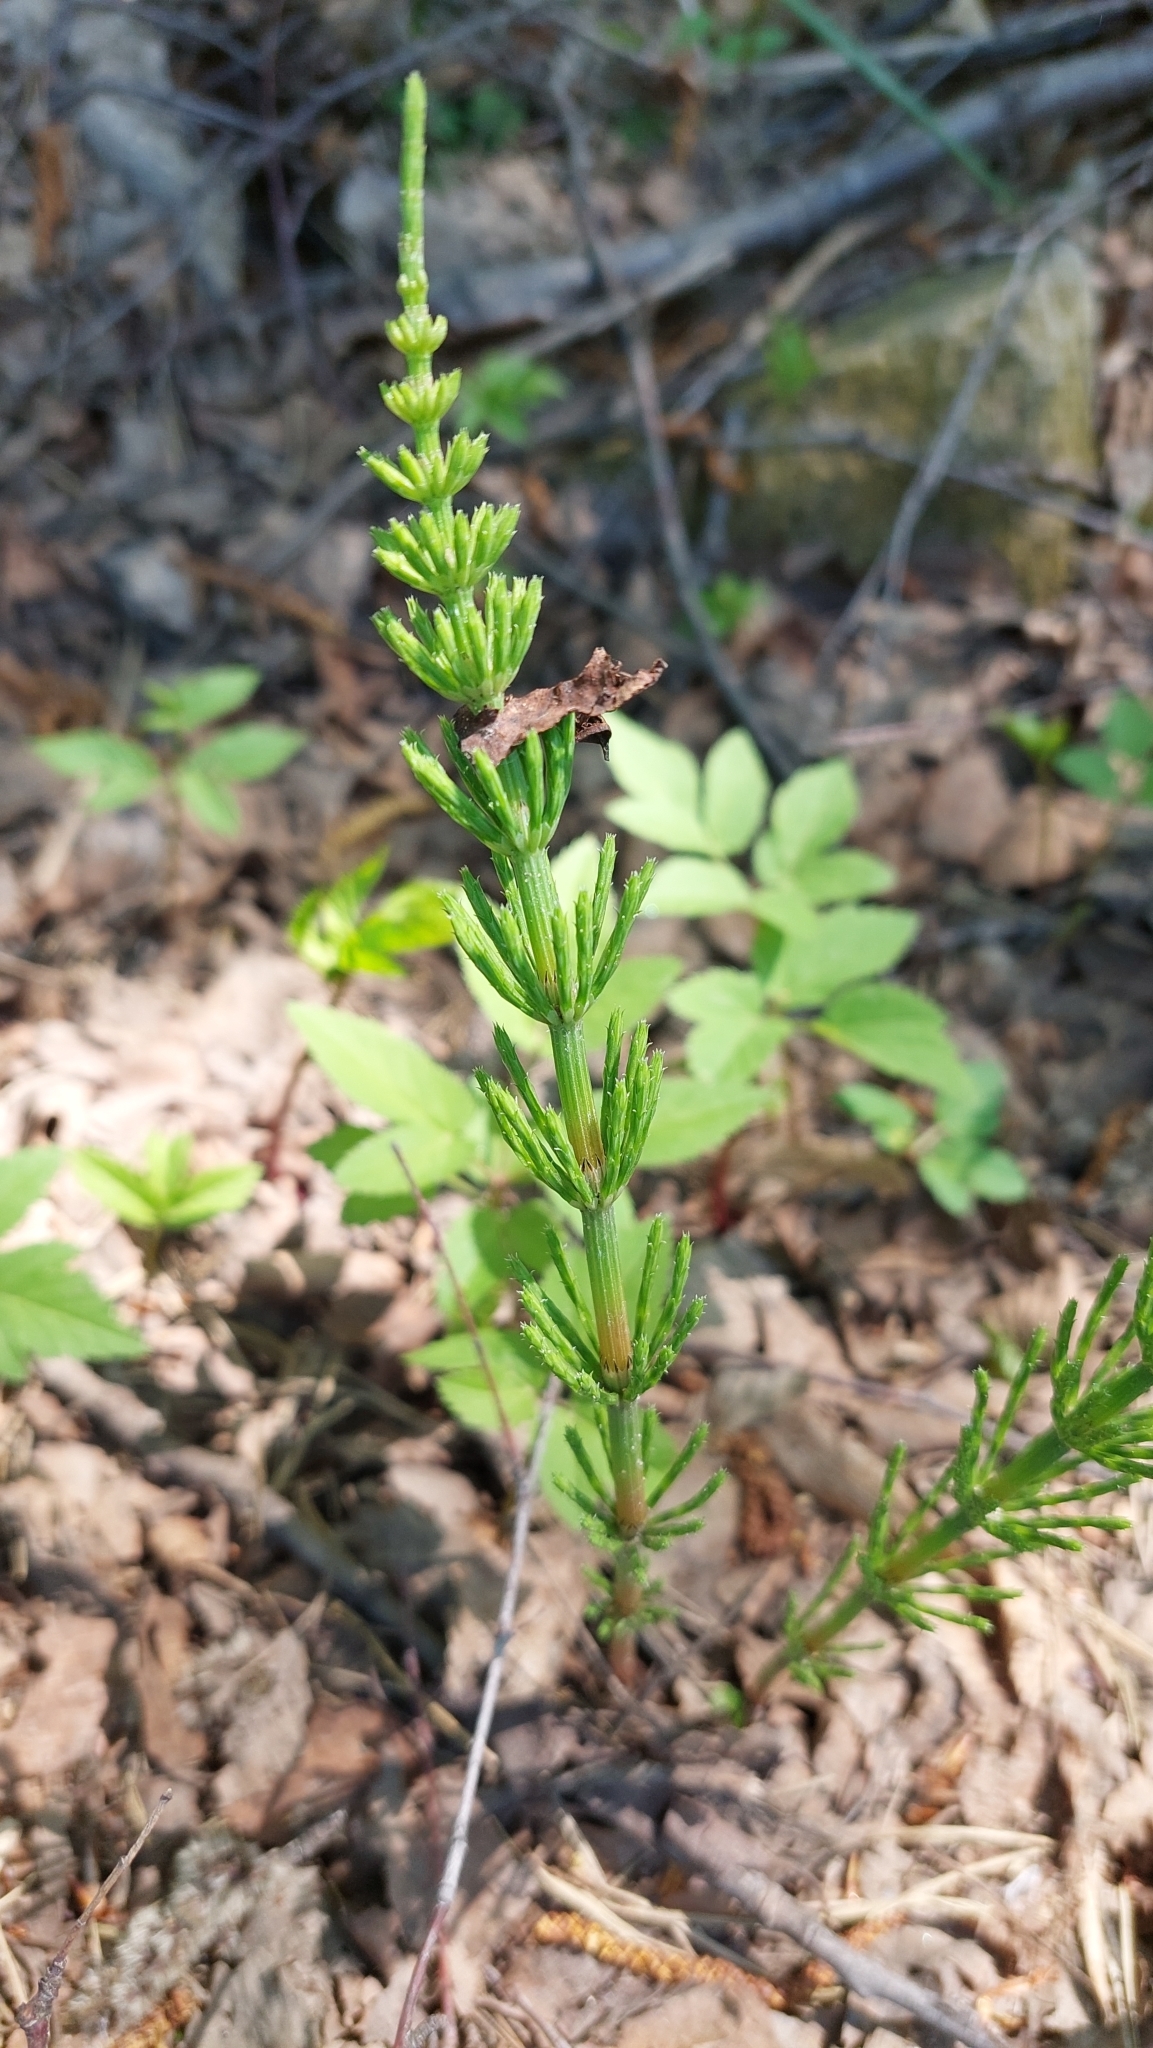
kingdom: Plantae
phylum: Tracheophyta
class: Polypodiopsida
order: Equisetales
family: Equisetaceae
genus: Equisetum
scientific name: Equisetum arvense
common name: Field horsetail
